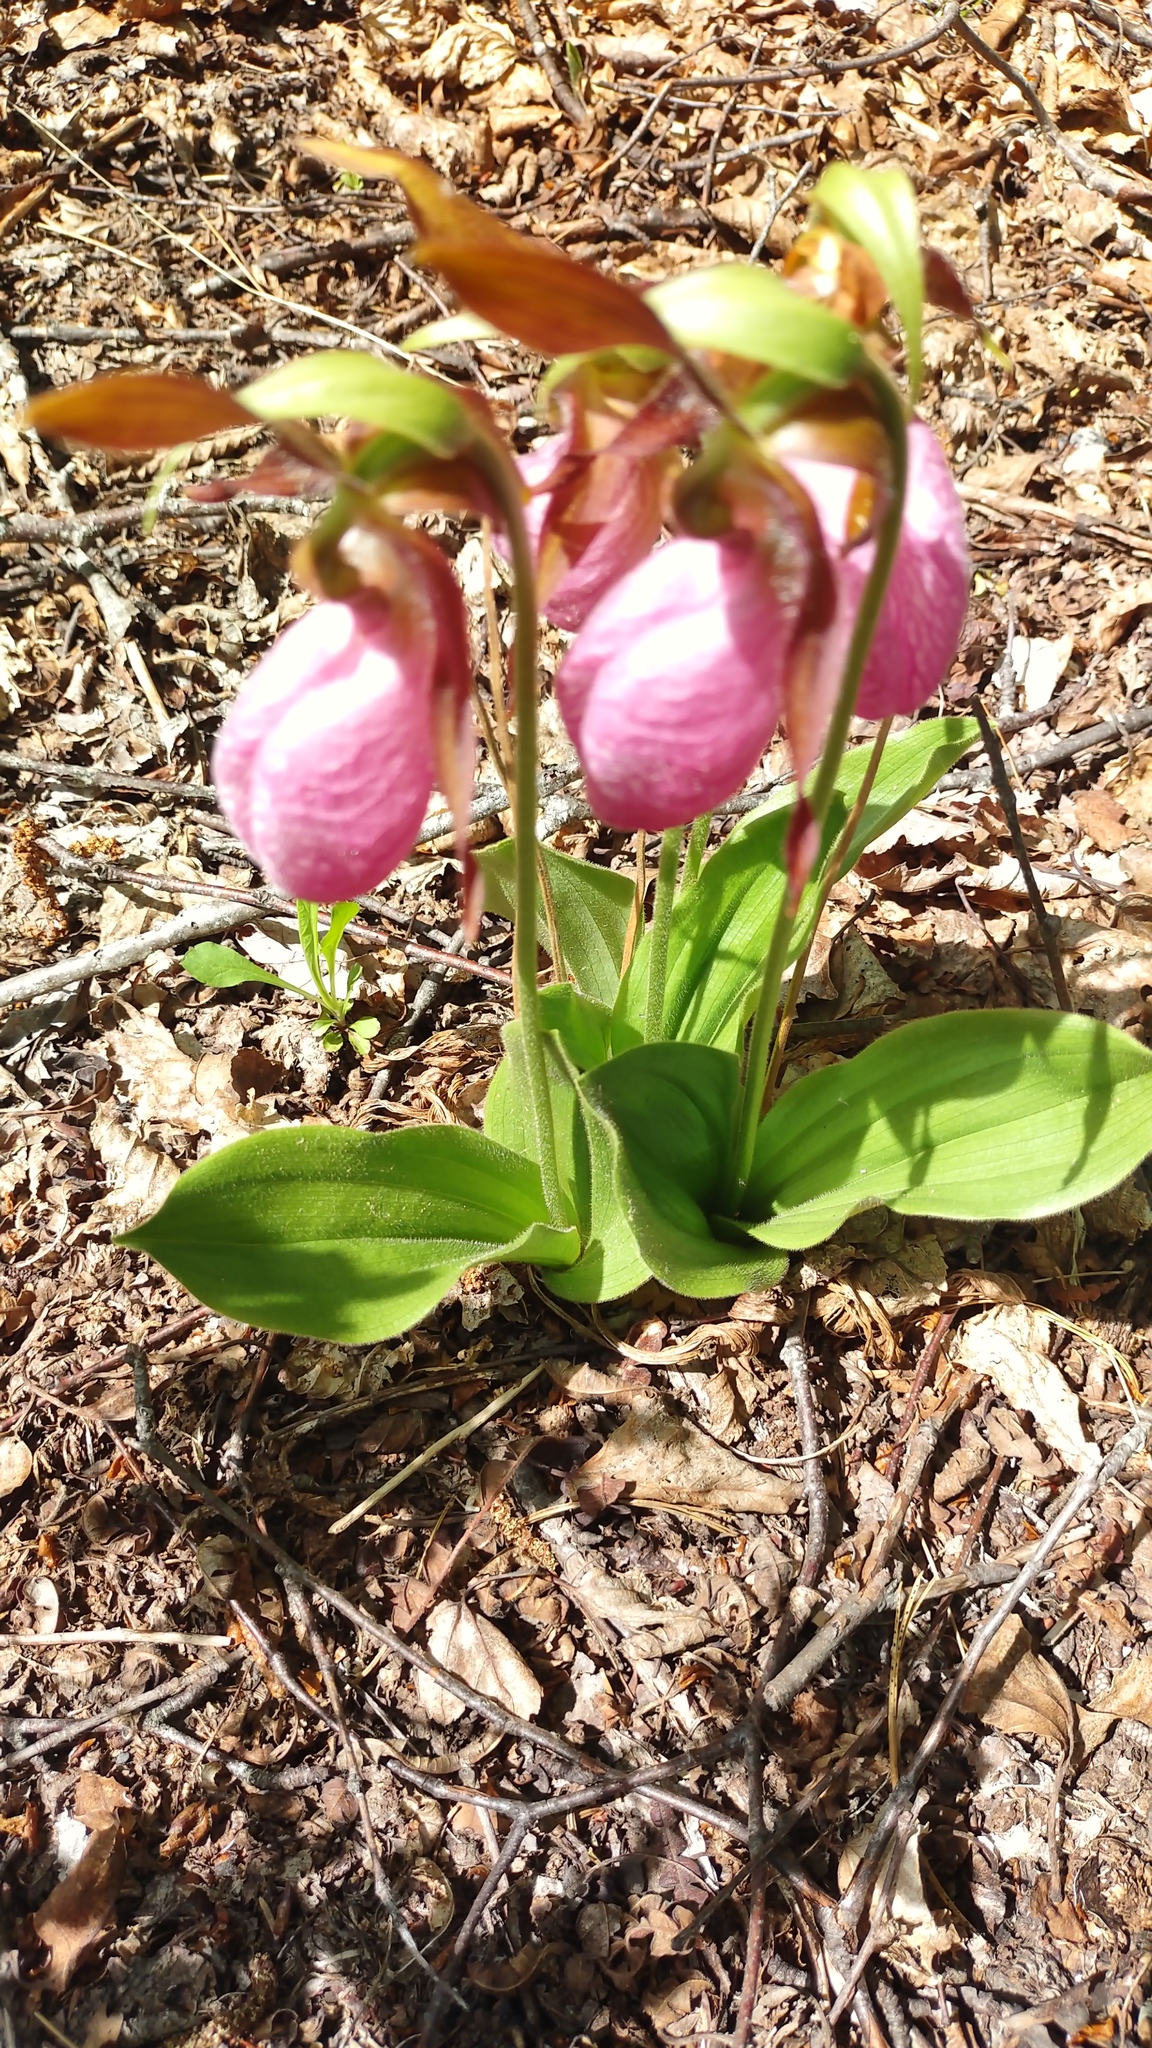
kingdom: Plantae
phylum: Tracheophyta
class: Liliopsida
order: Asparagales
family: Orchidaceae
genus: Cypripedium
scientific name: Cypripedium acaule
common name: Pink lady's-slipper
